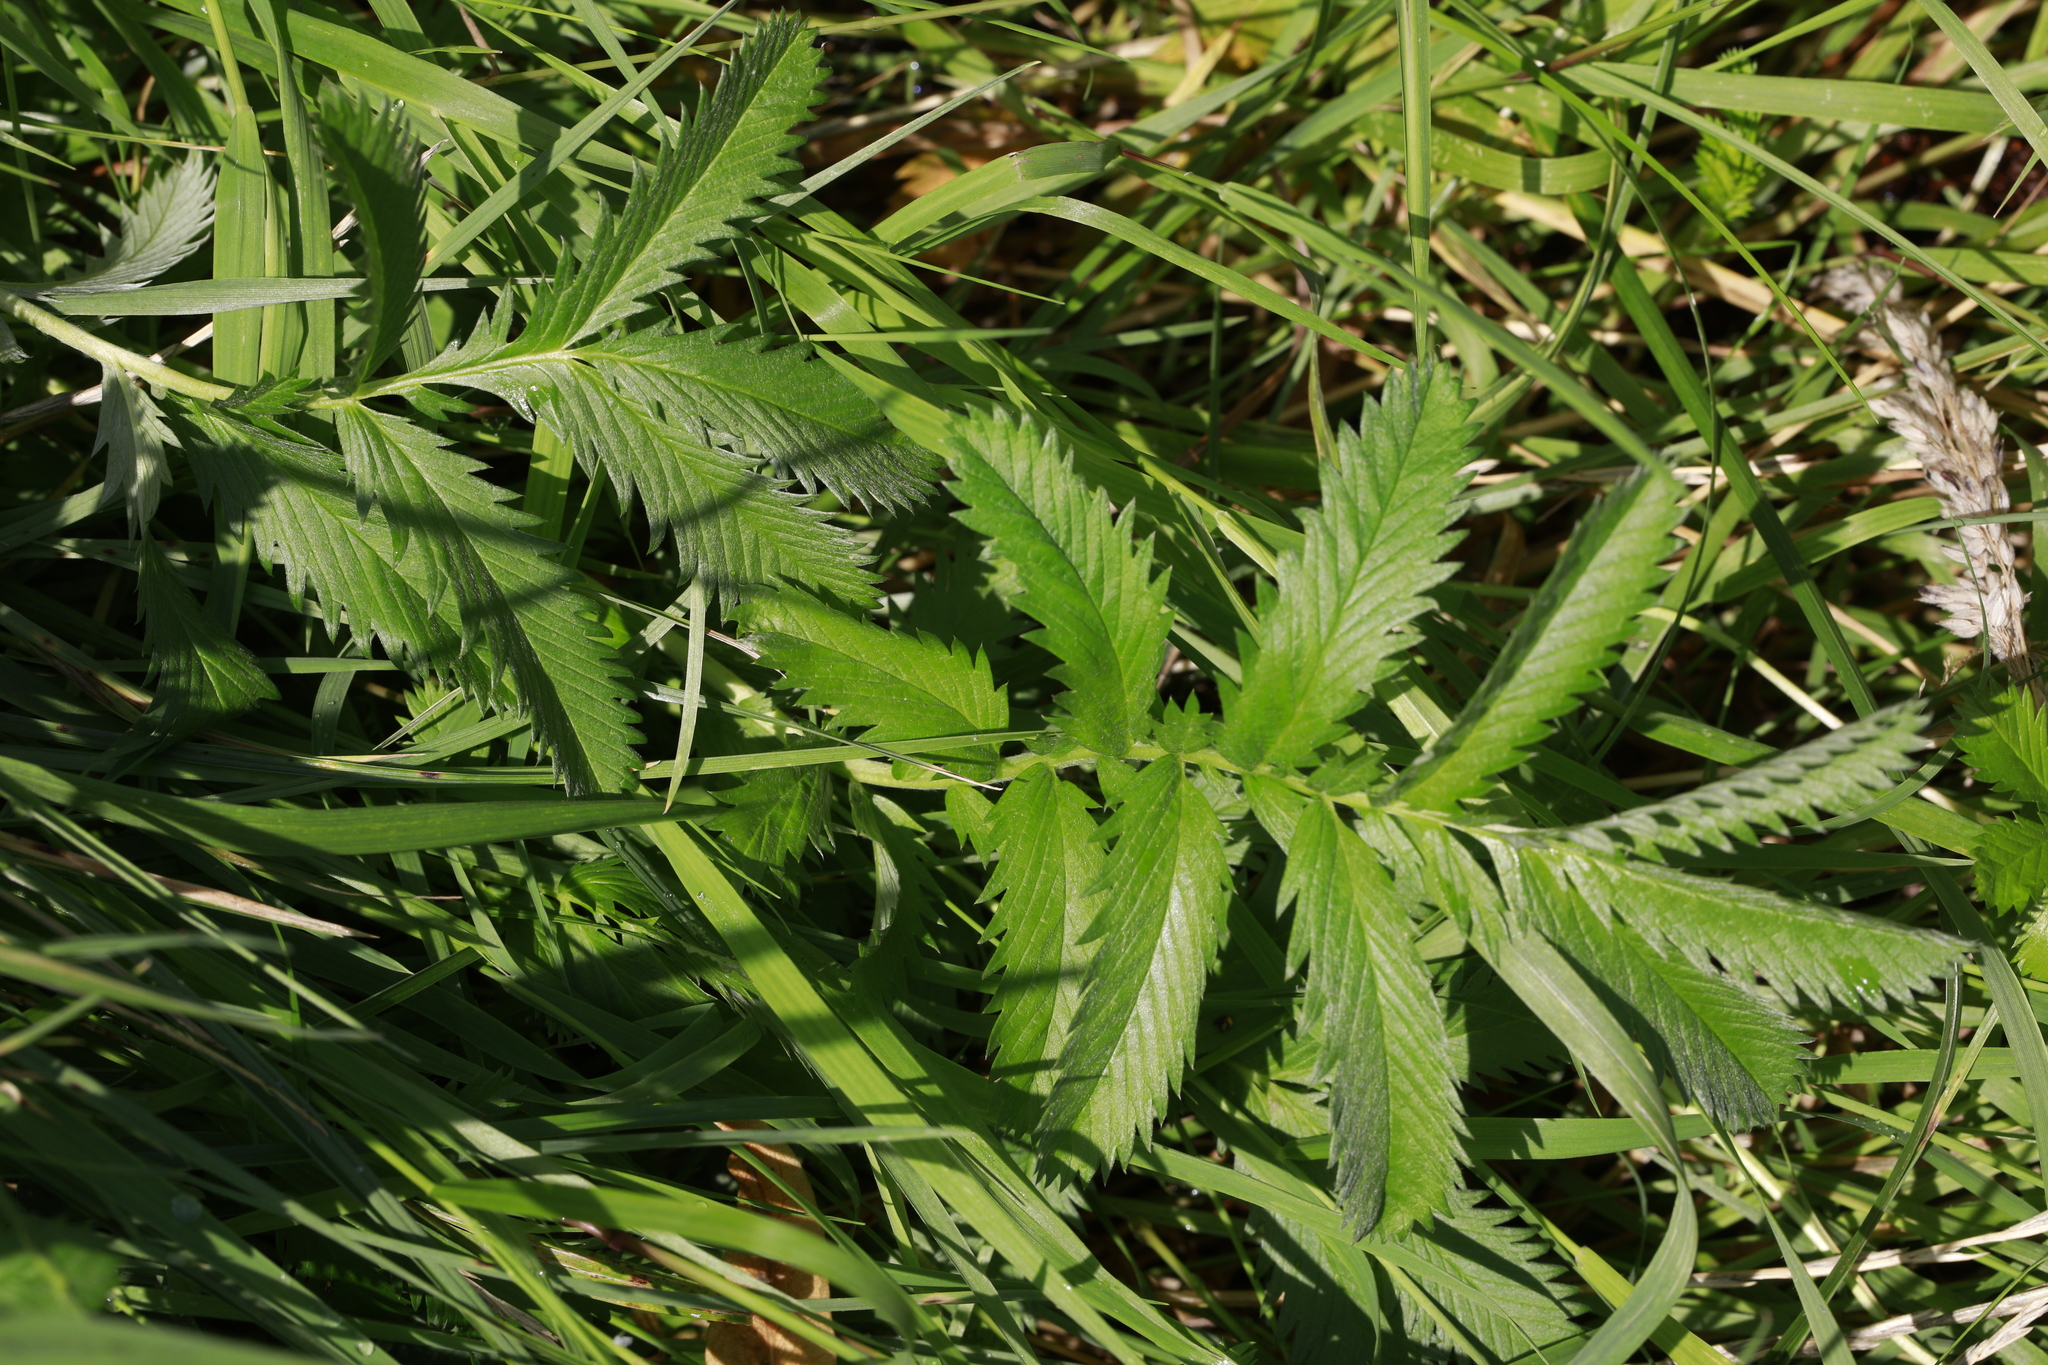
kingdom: Plantae
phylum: Tracheophyta
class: Magnoliopsida
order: Rosales
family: Rosaceae
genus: Argentina
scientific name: Argentina anserina
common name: Common silverweed
